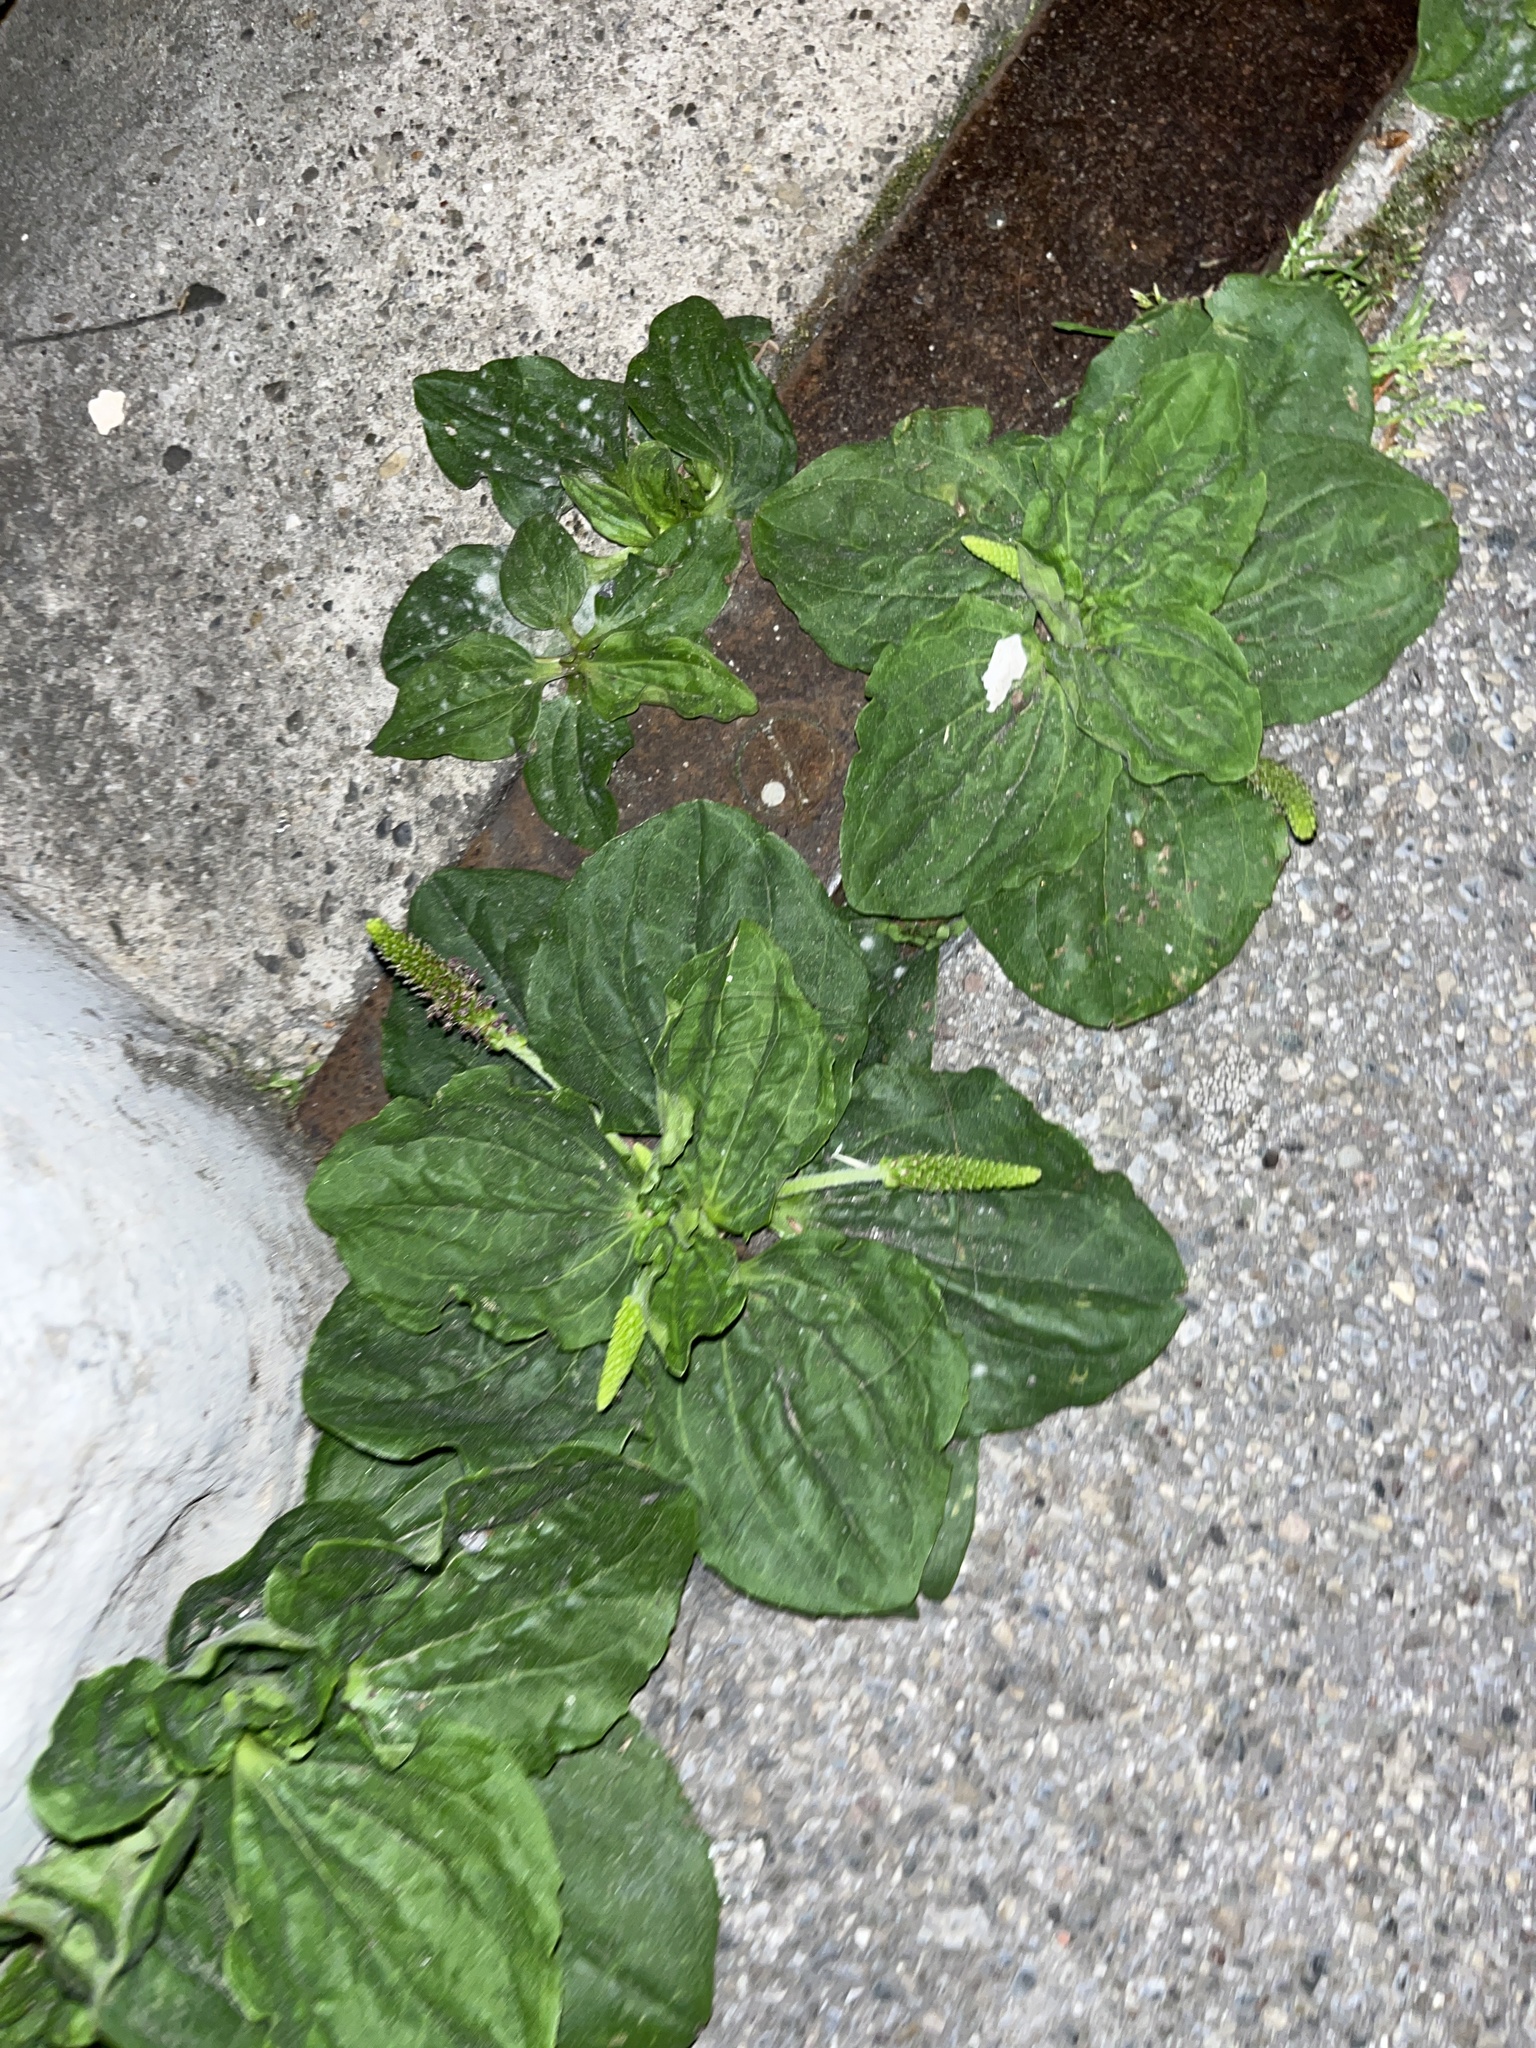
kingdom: Plantae
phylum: Tracheophyta
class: Magnoliopsida
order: Lamiales
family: Plantaginaceae
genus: Plantago
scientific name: Plantago major
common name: Common plantain
